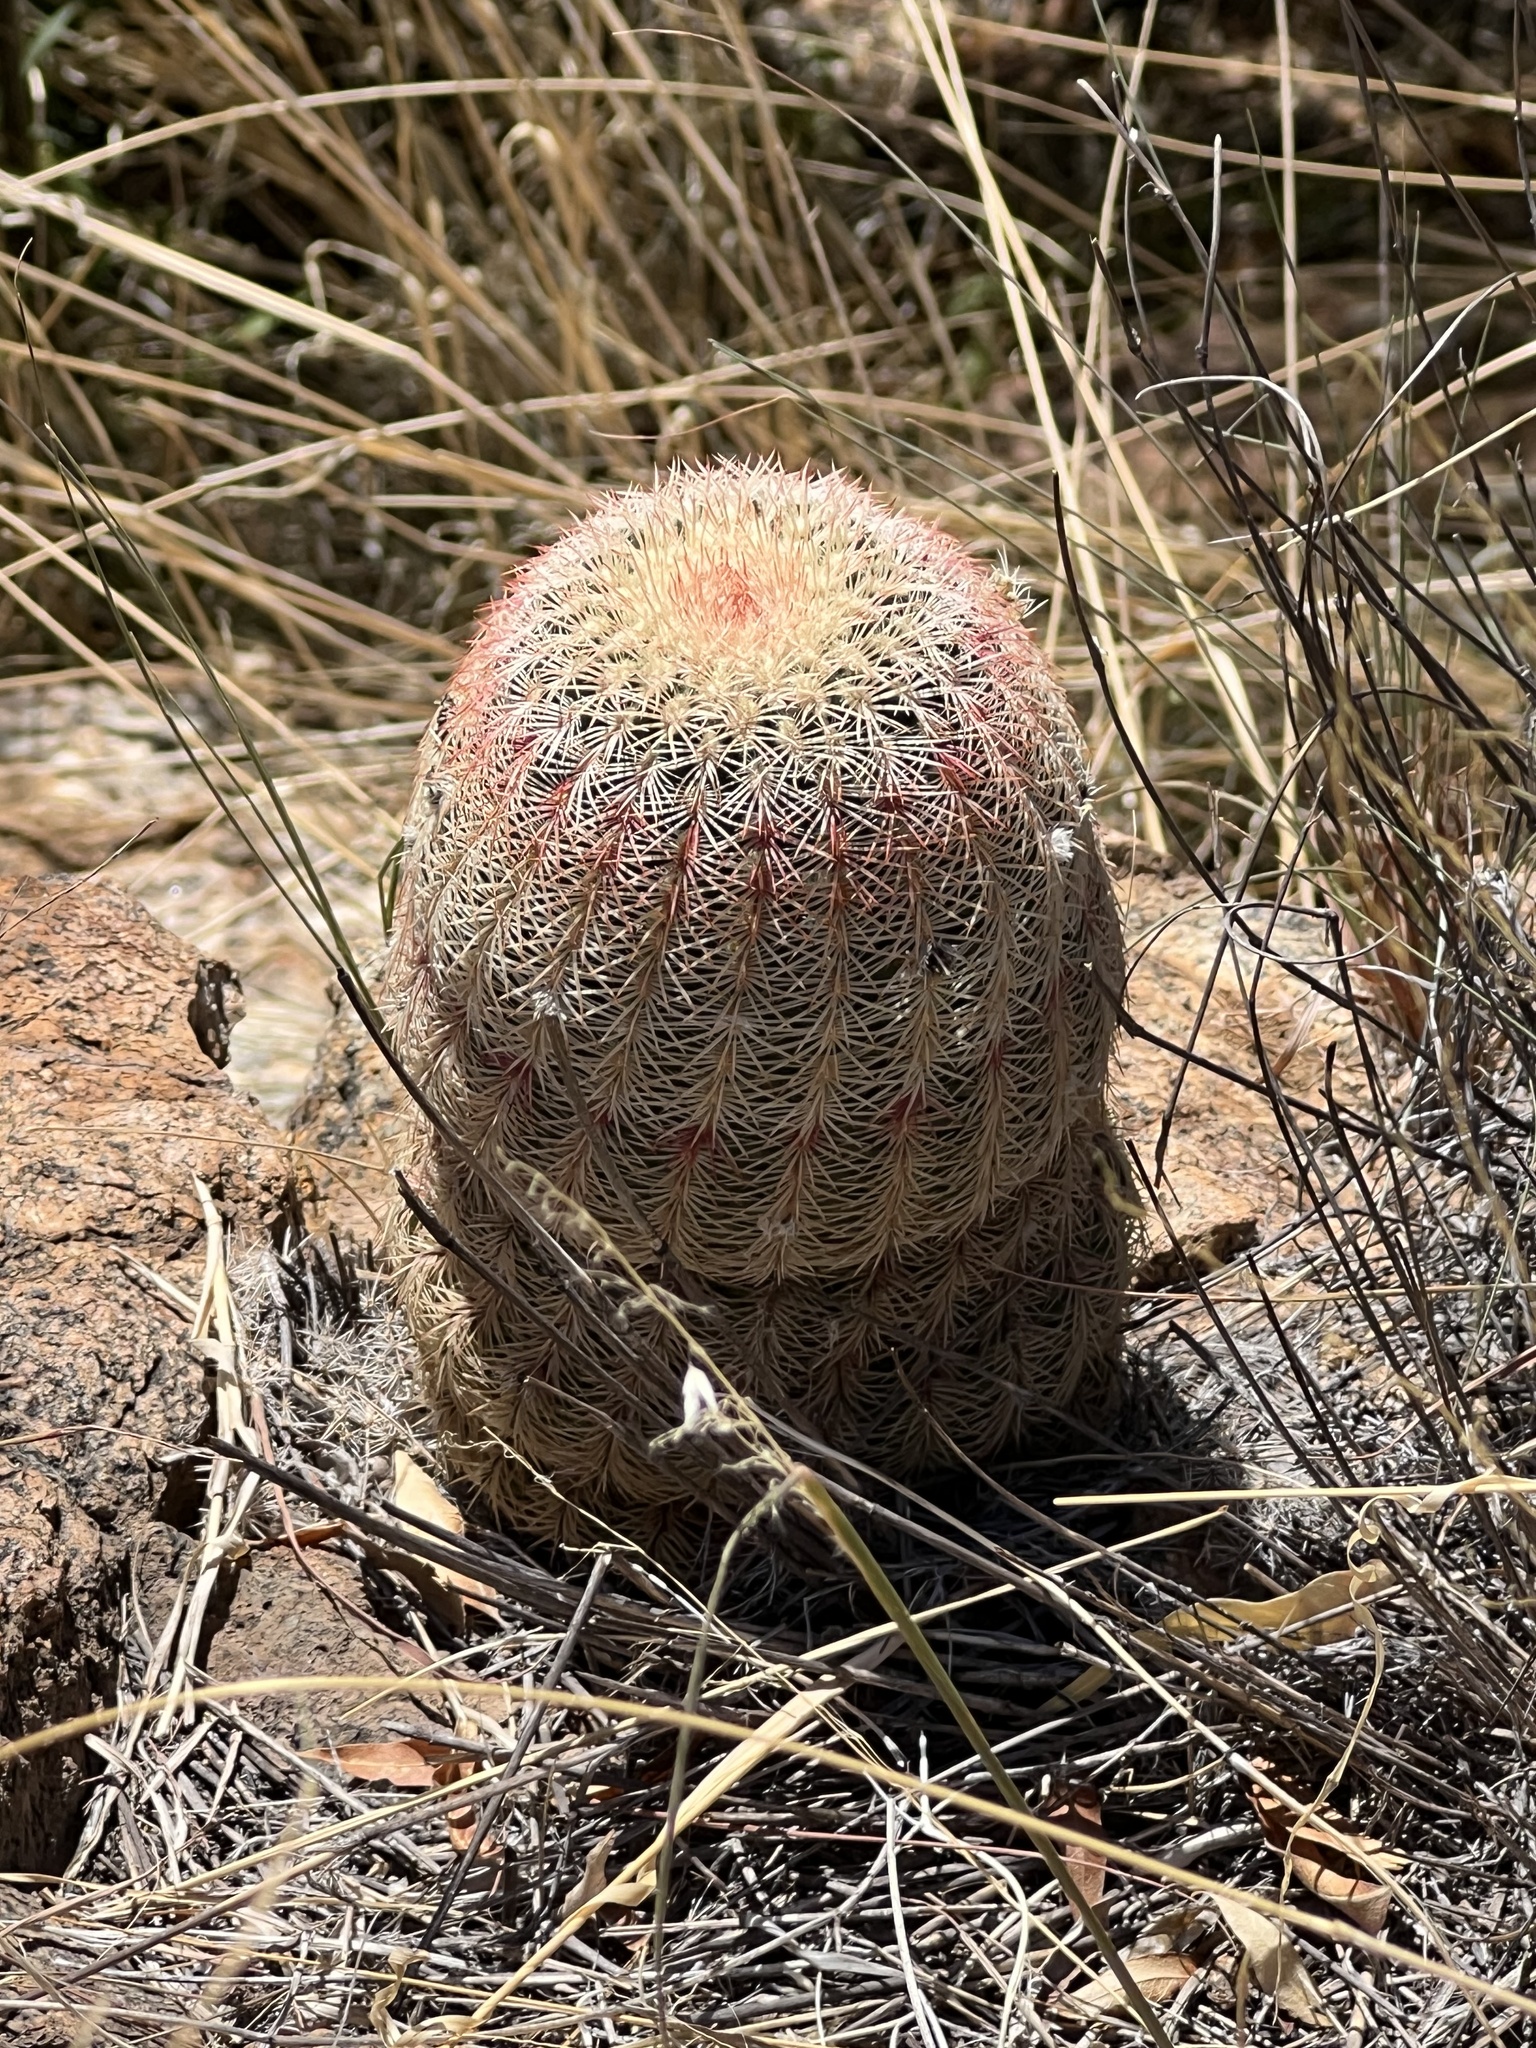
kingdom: Plantae
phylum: Tracheophyta
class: Magnoliopsida
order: Caryophyllales
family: Cactaceae
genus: Echinocereus
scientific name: Echinocereus rigidissimus
